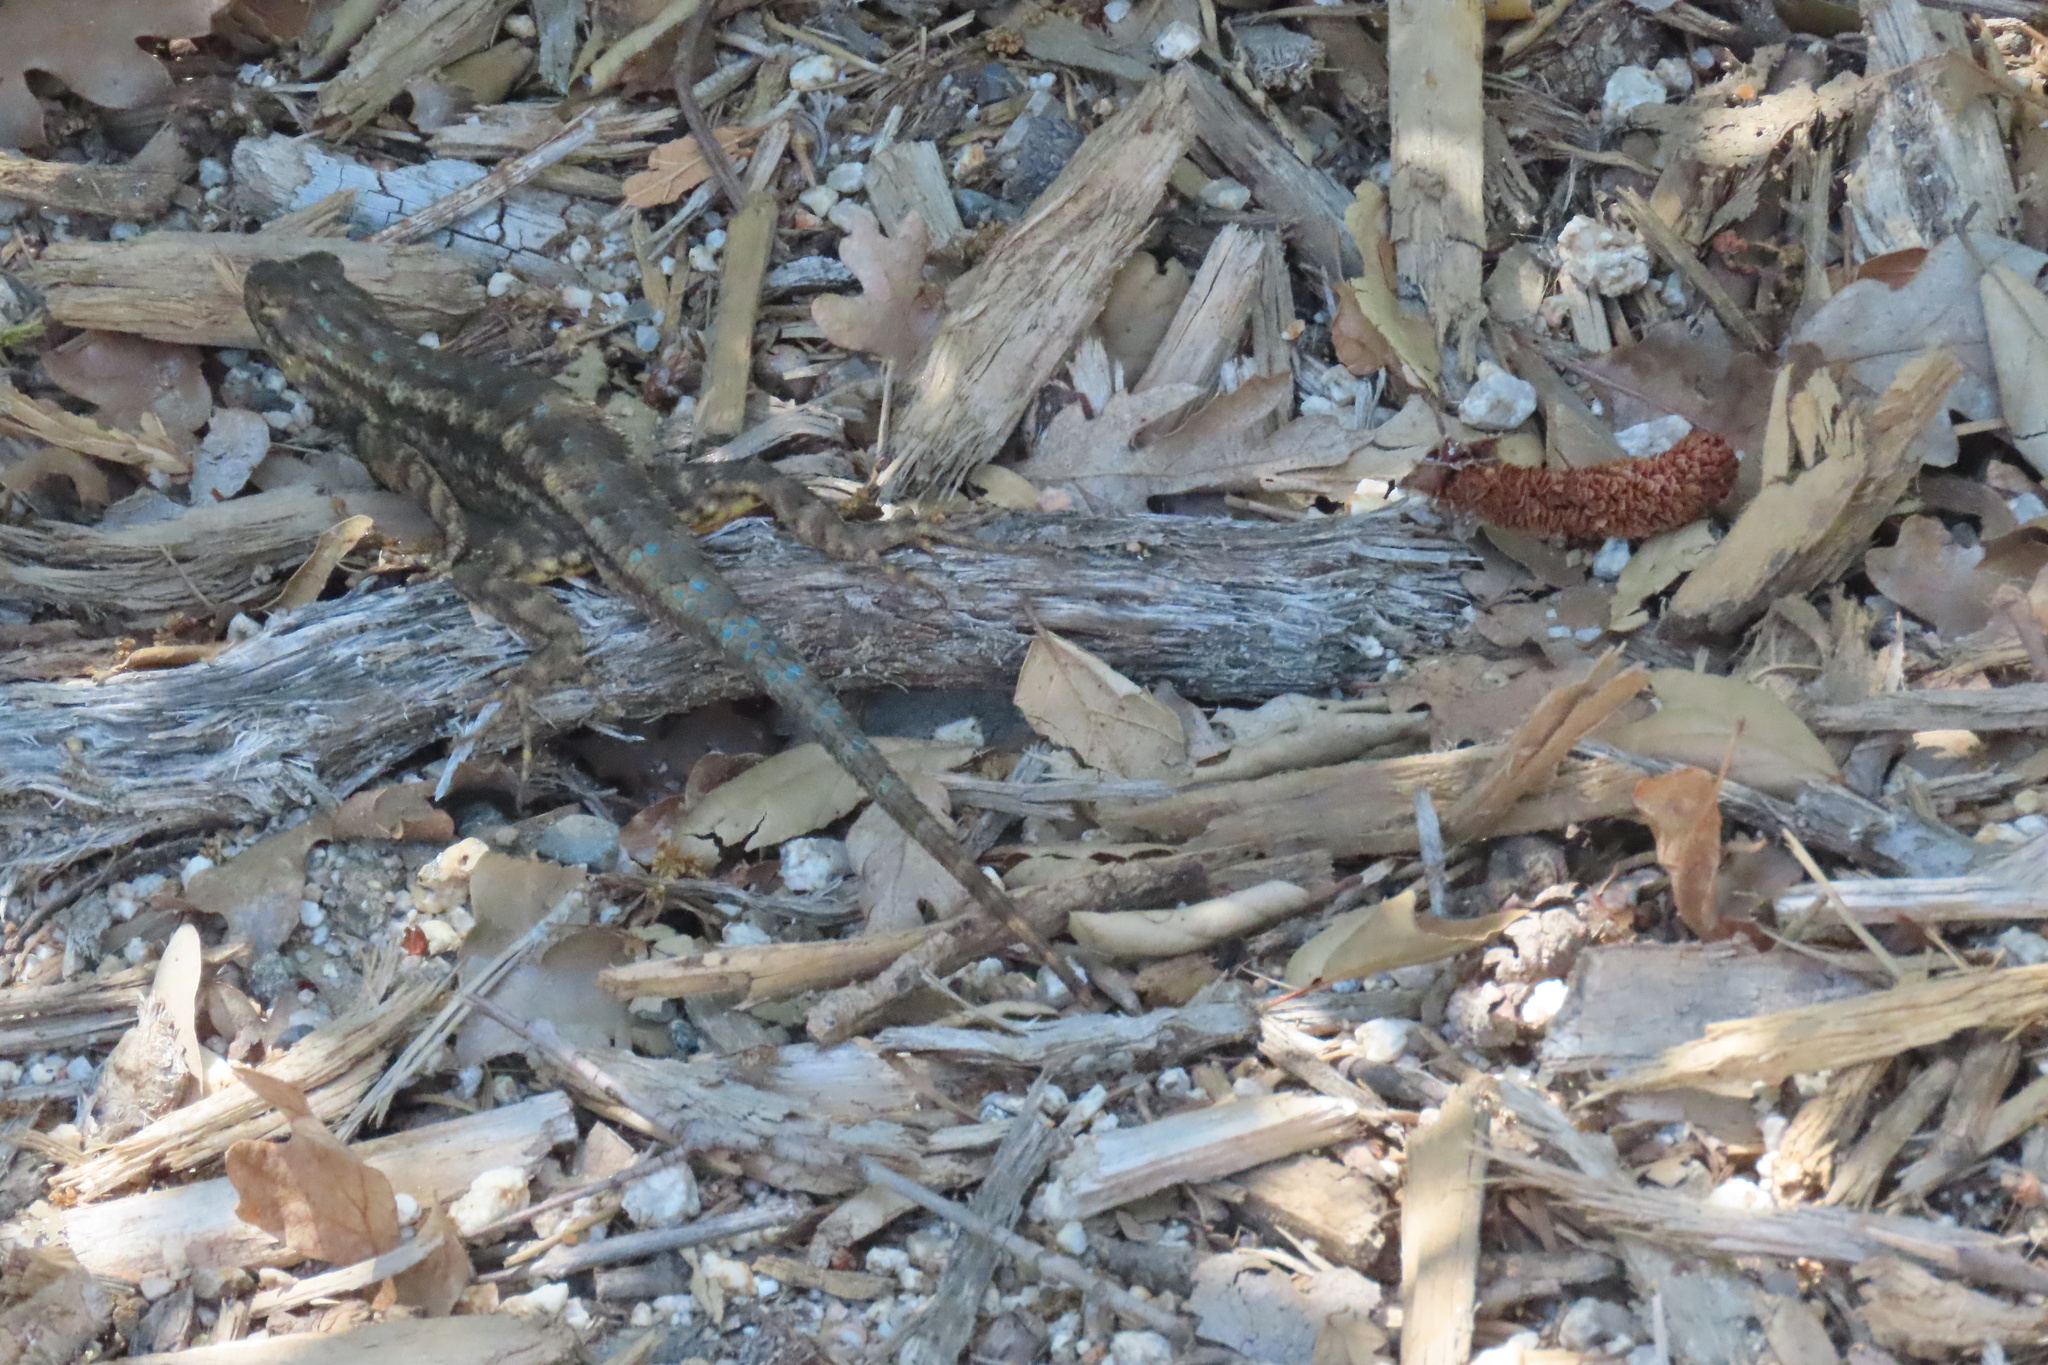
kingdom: Animalia
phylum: Chordata
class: Squamata
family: Phrynosomatidae
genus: Sceloporus
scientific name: Sceloporus occidentalis
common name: Western fence lizard
